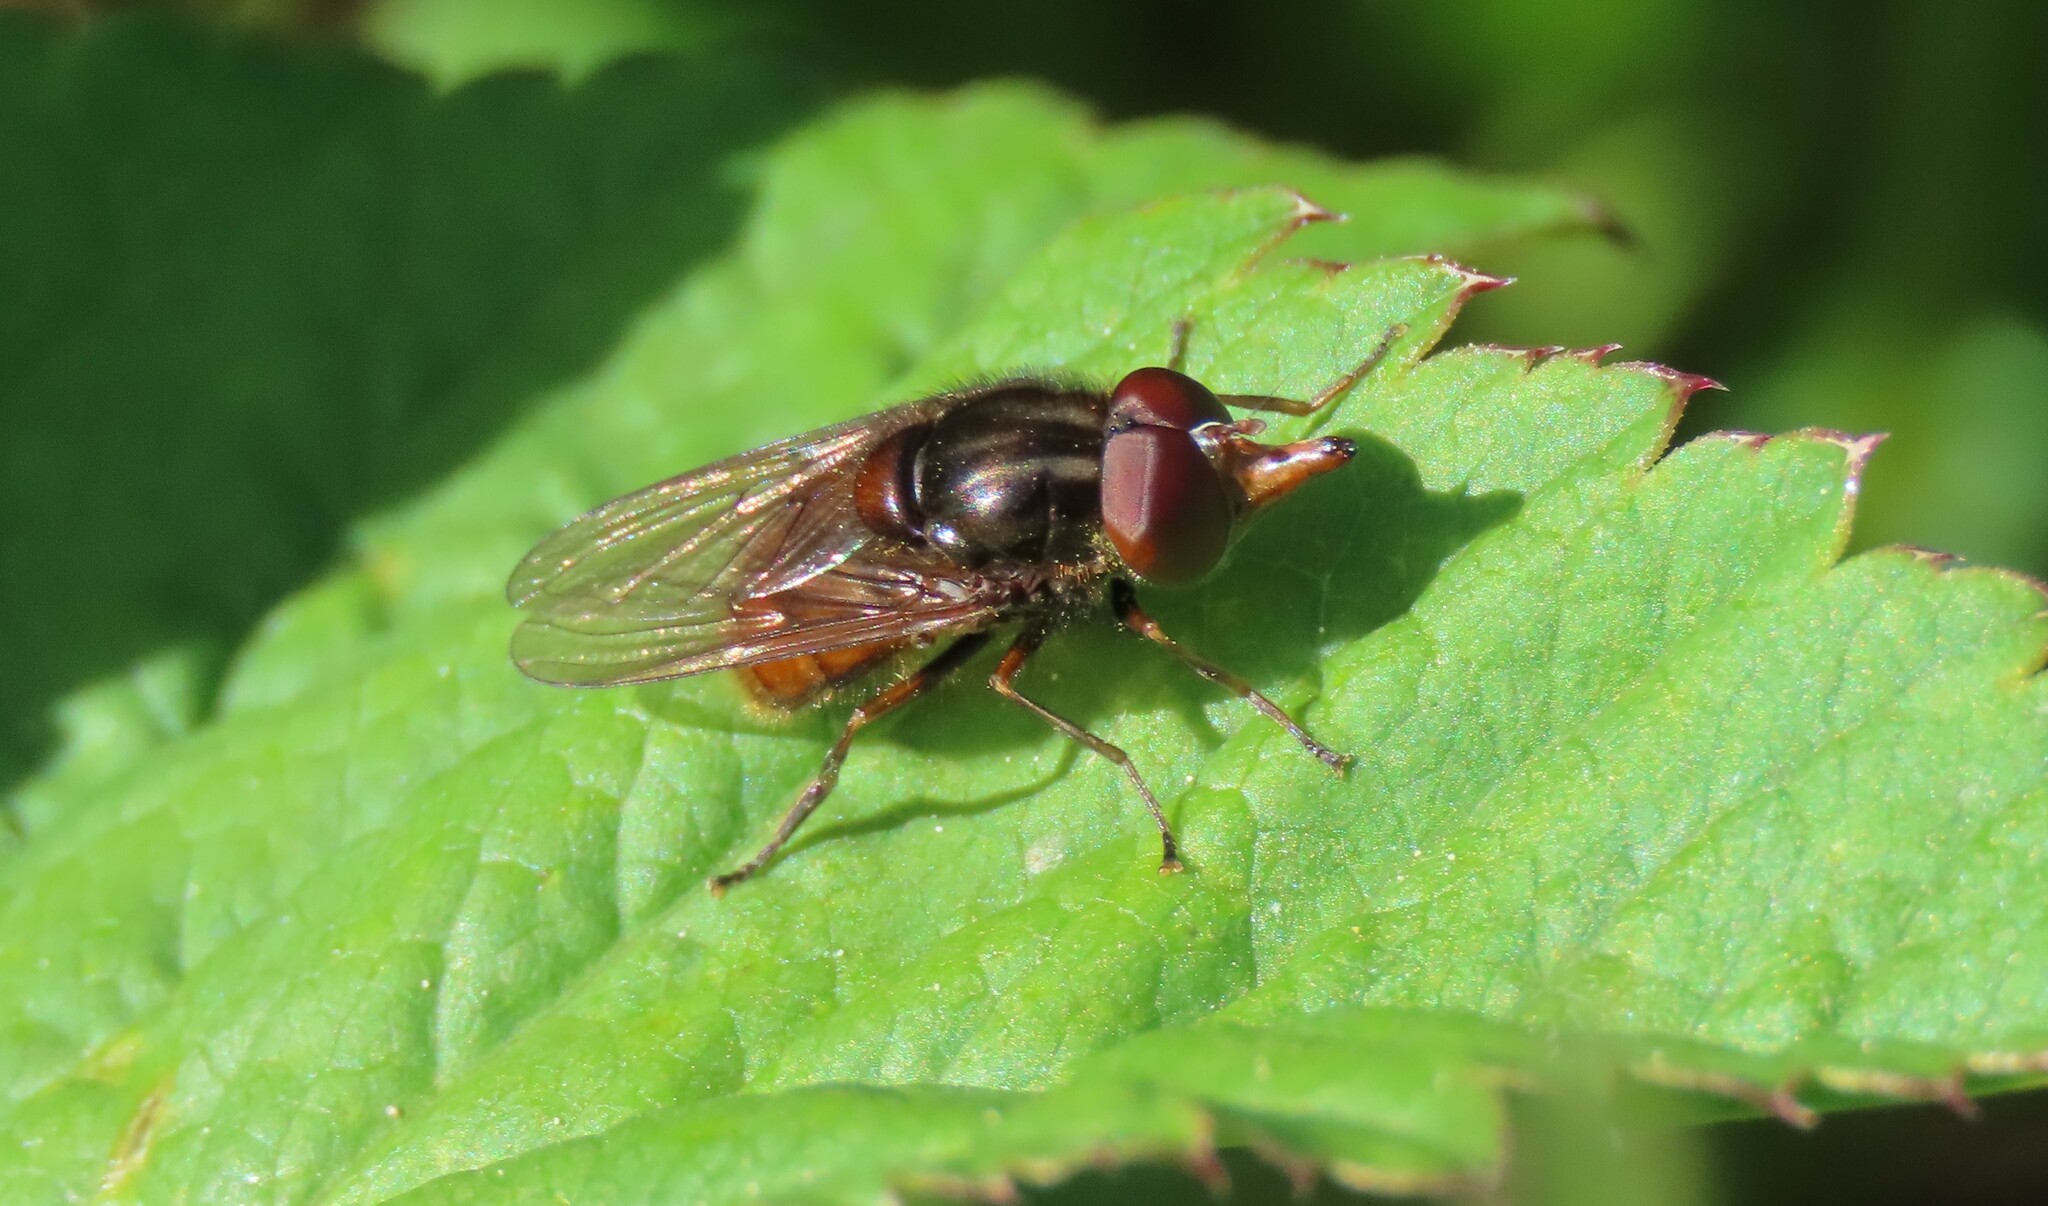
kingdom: Animalia
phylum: Arthropoda
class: Insecta
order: Diptera
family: Syrphidae
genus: Rhingia
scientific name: Rhingia campestris
